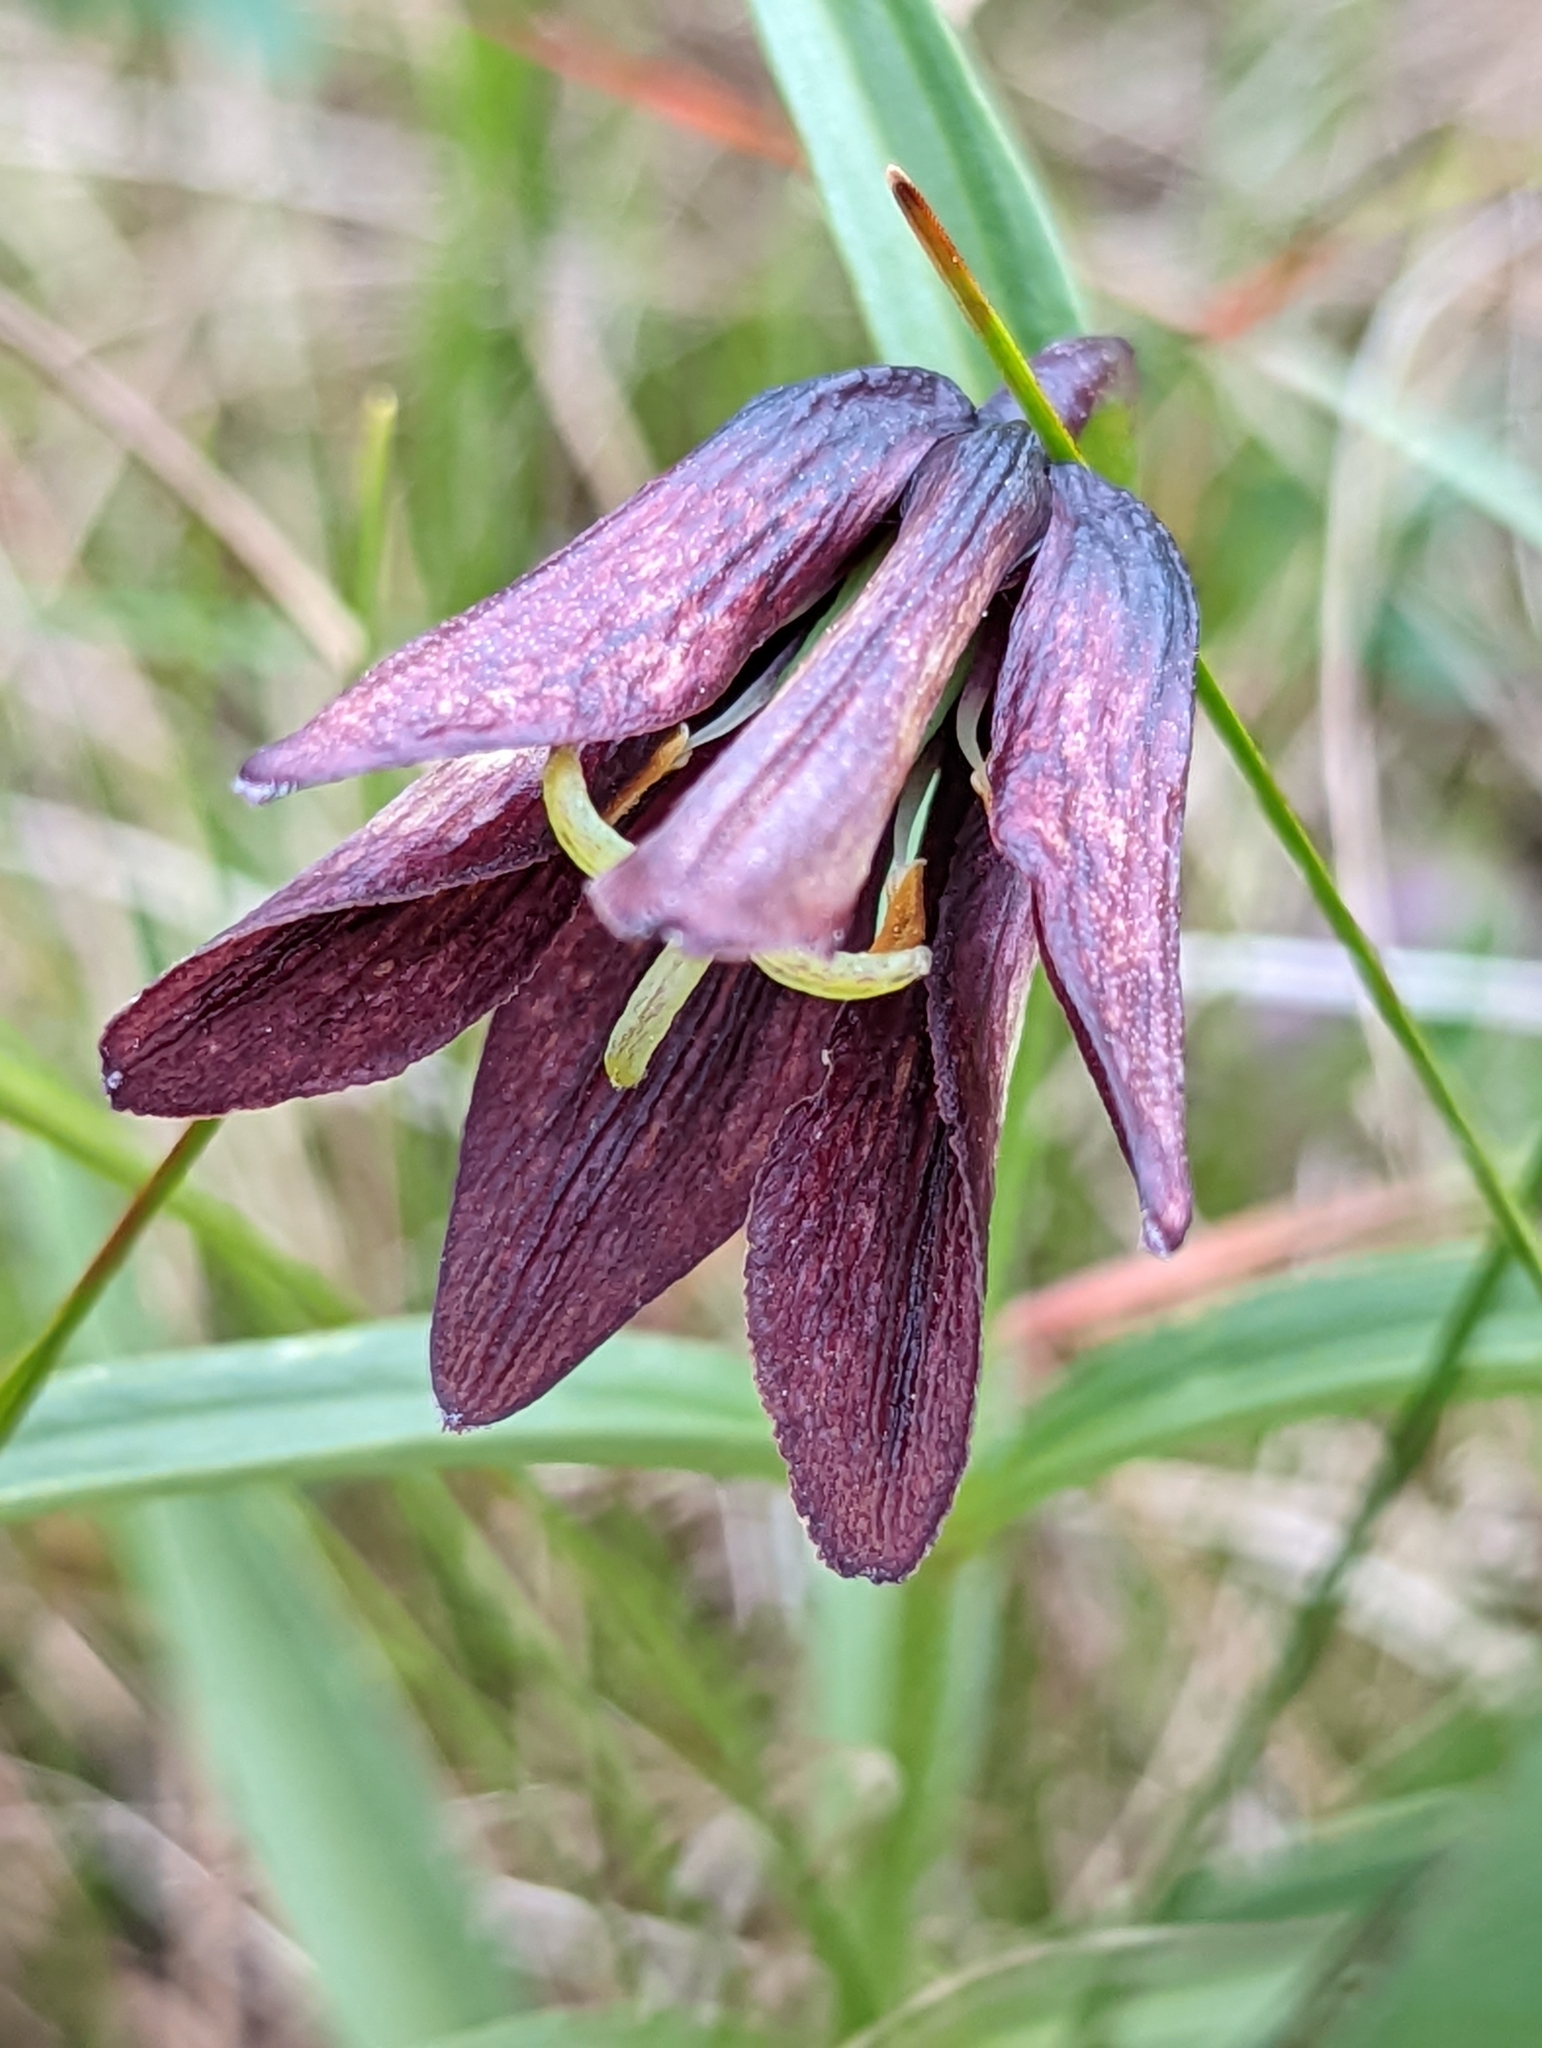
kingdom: Plantae
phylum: Tracheophyta
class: Liliopsida
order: Liliales
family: Liliaceae
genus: Fritillaria
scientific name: Fritillaria camschatcensis
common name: Kamchatka fritillary
